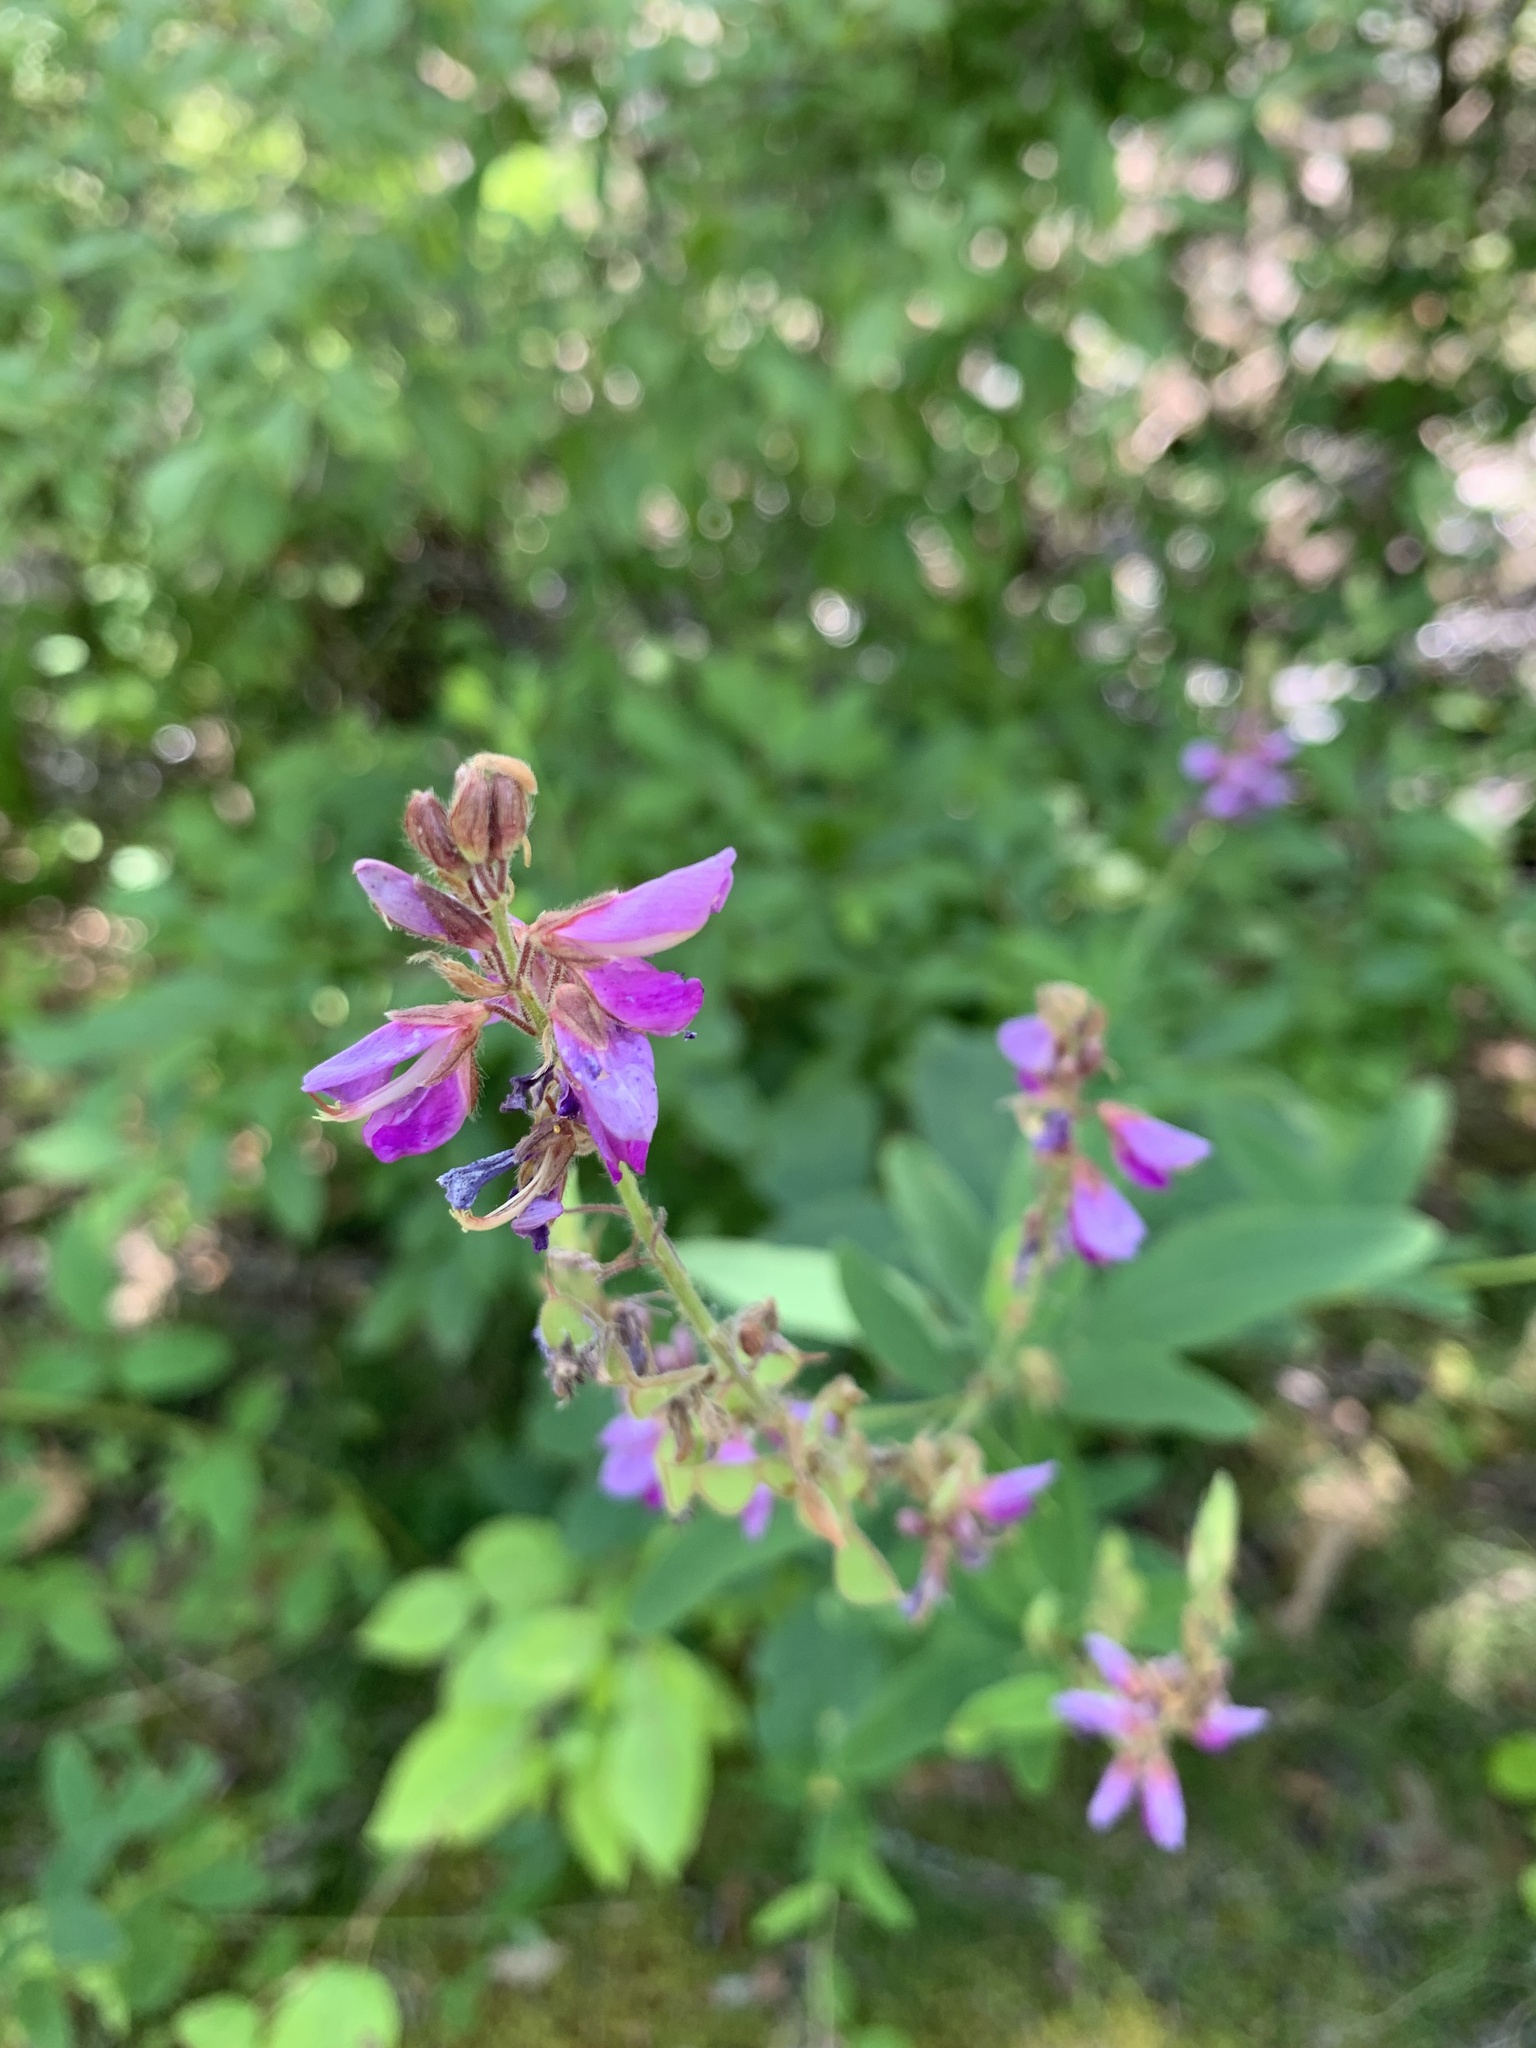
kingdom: Plantae
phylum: Tracheophyta
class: Magnoliopsida
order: Fabales
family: Fabaceae
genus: Desmodium
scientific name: Desmodium canadense
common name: Canada tick-trefoil
